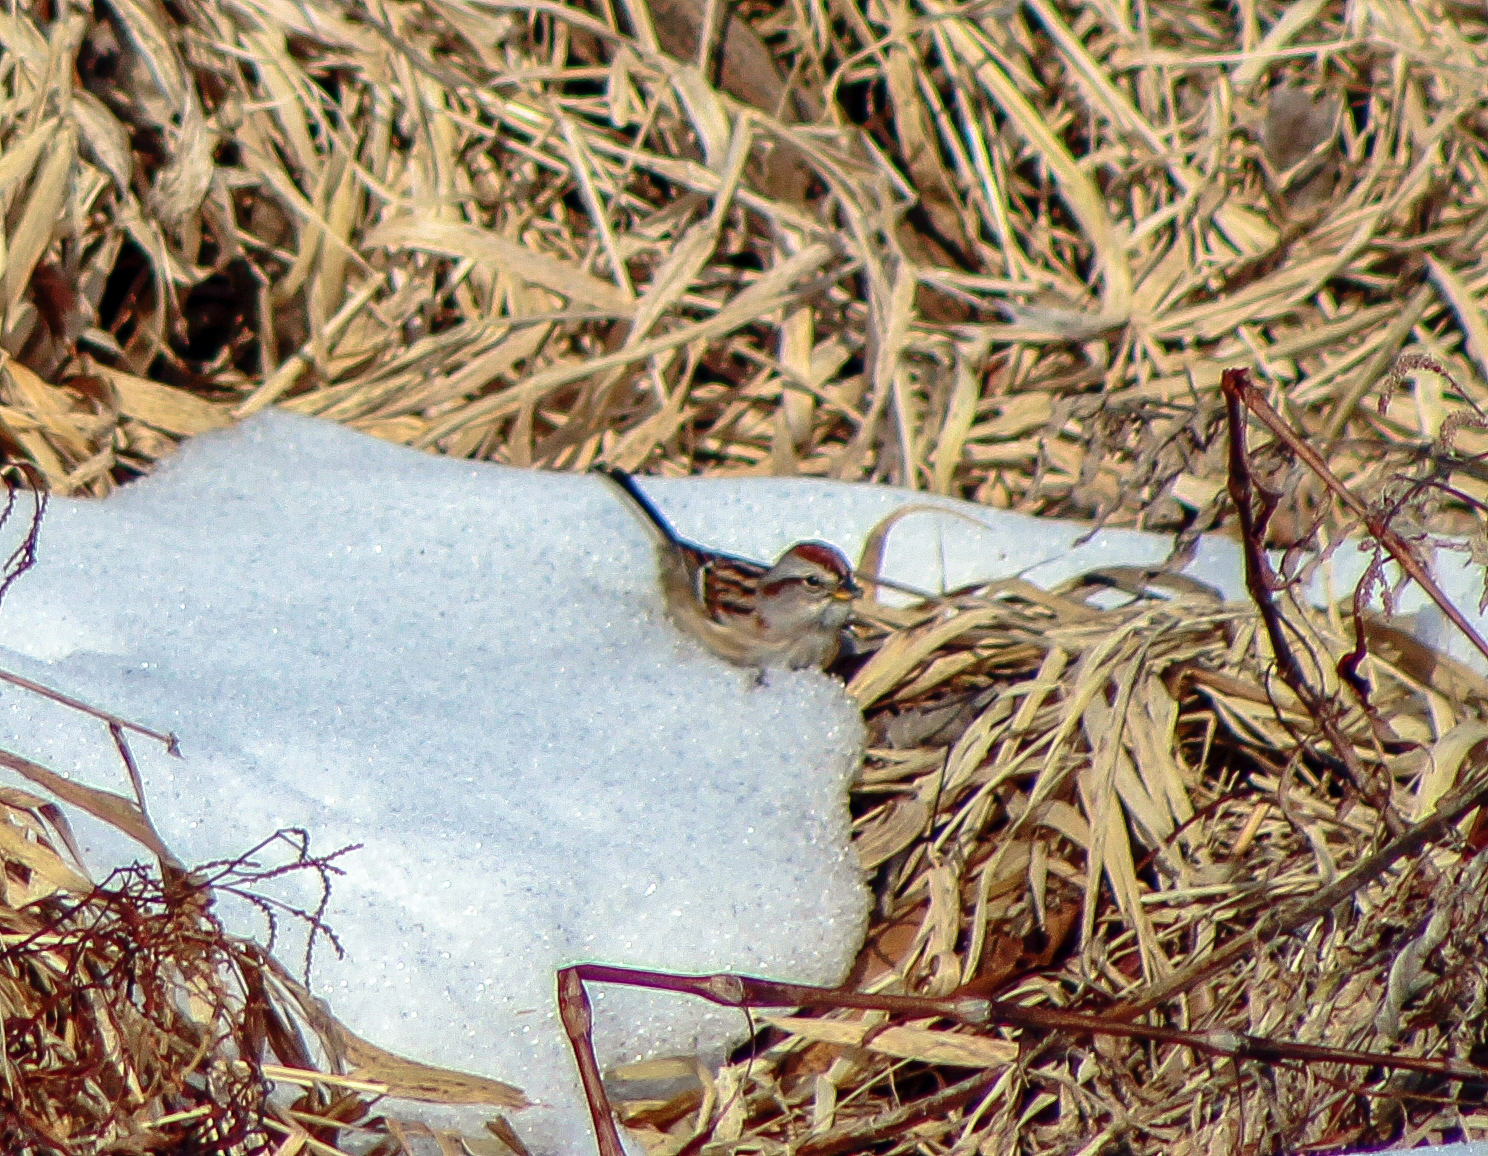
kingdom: Animalia
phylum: Chordata
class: Aves
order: Passeriformes
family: Passerellidae
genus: Spizelloides
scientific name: Spizelloides arborea
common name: American tree sparrow
